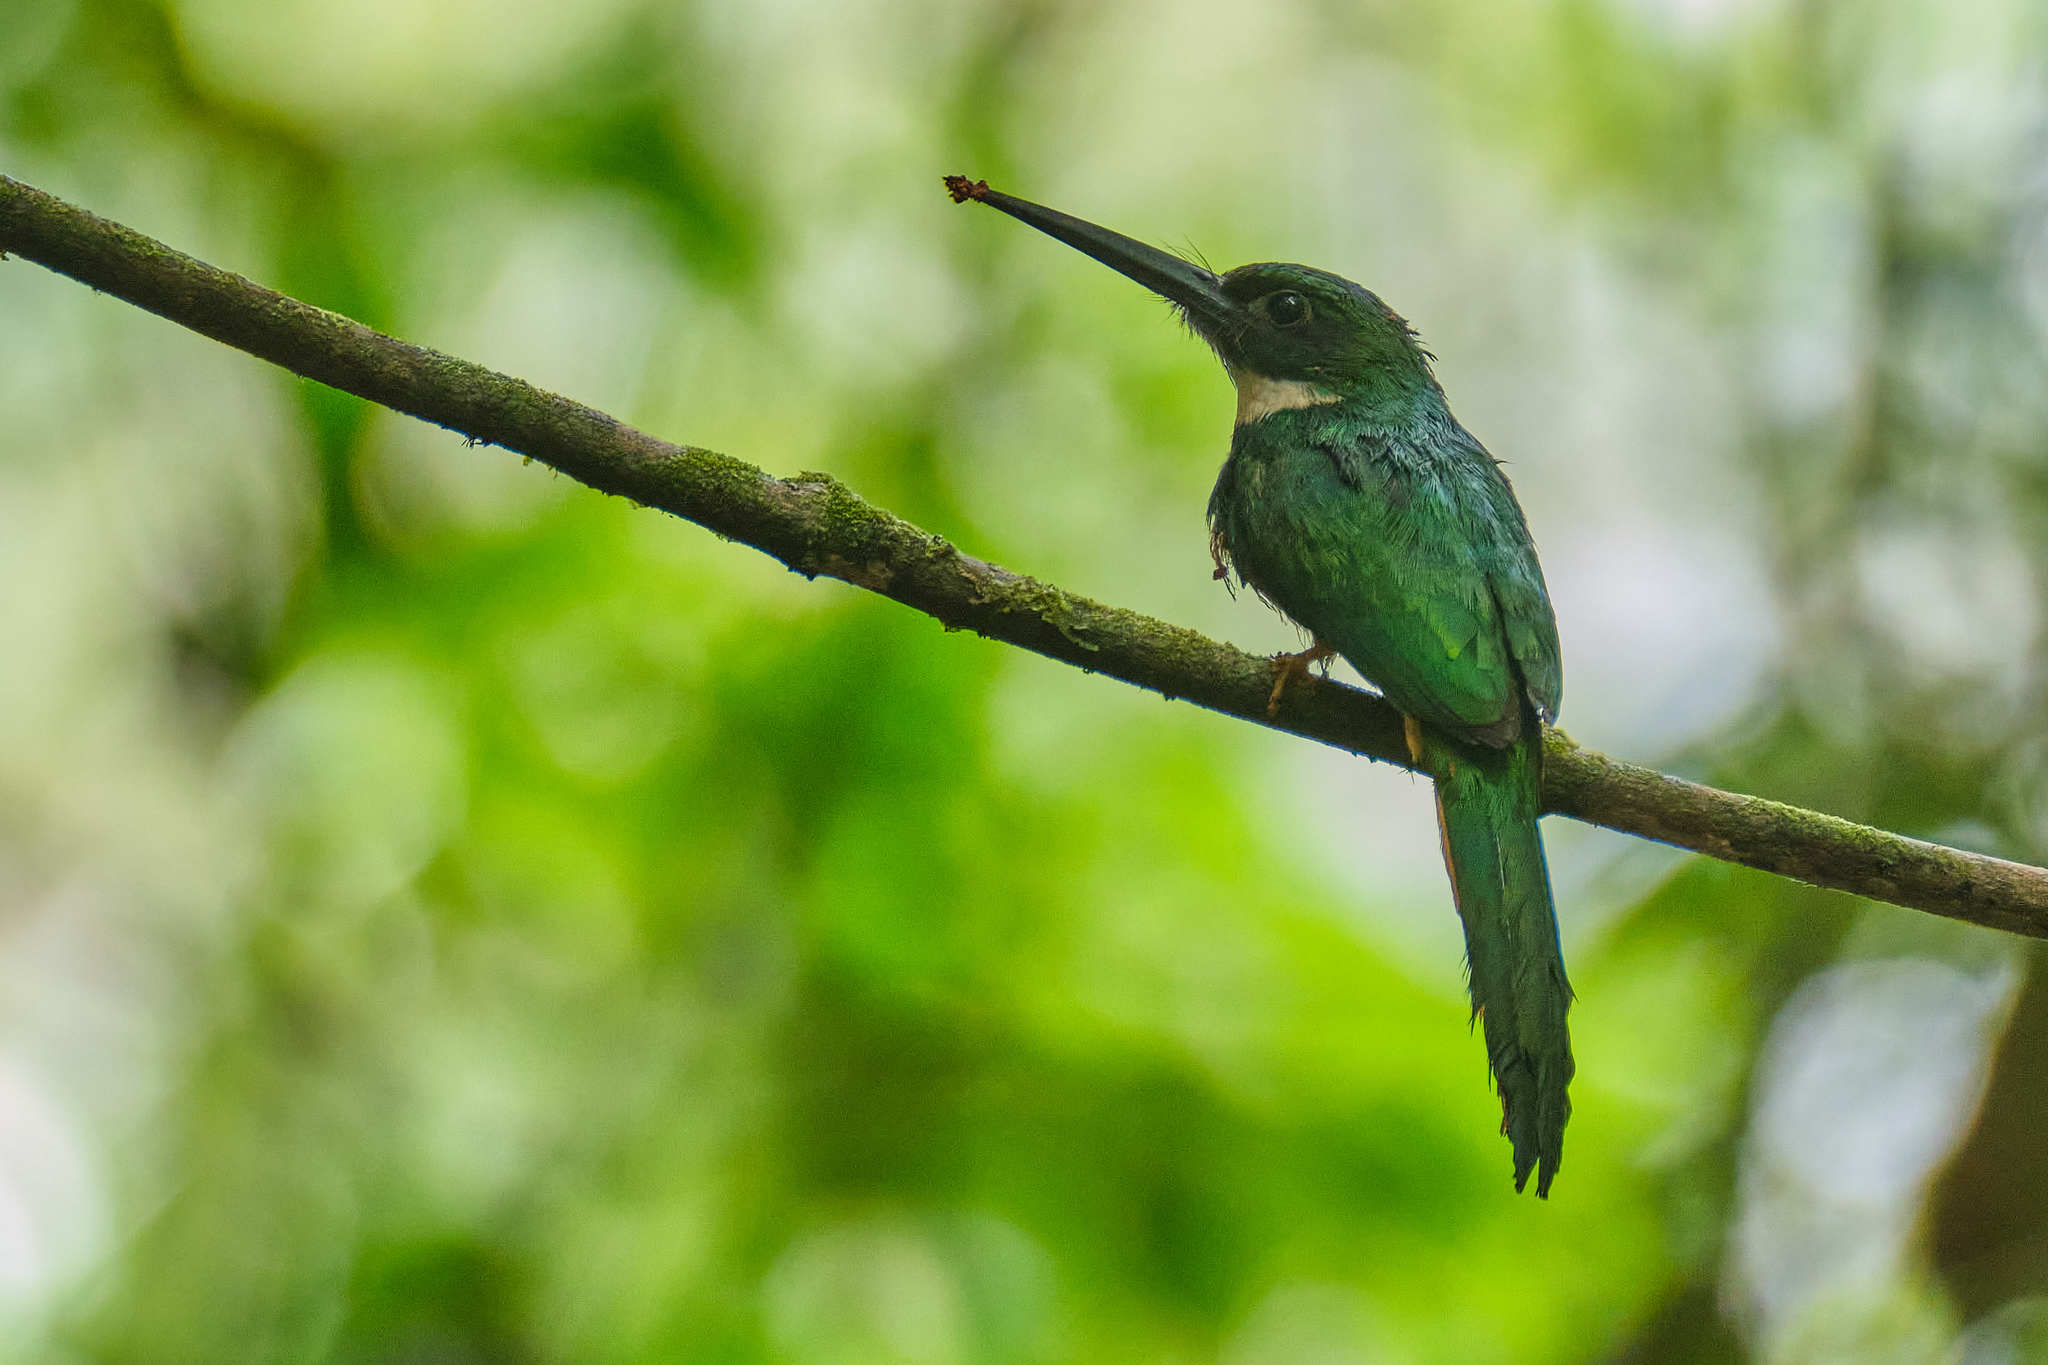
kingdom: Animalia
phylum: Chordata
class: Aves
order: Piciformes
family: Galbulidae
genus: Galbula
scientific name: Galbula ruficauda
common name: Rufous-tailed jacamar
